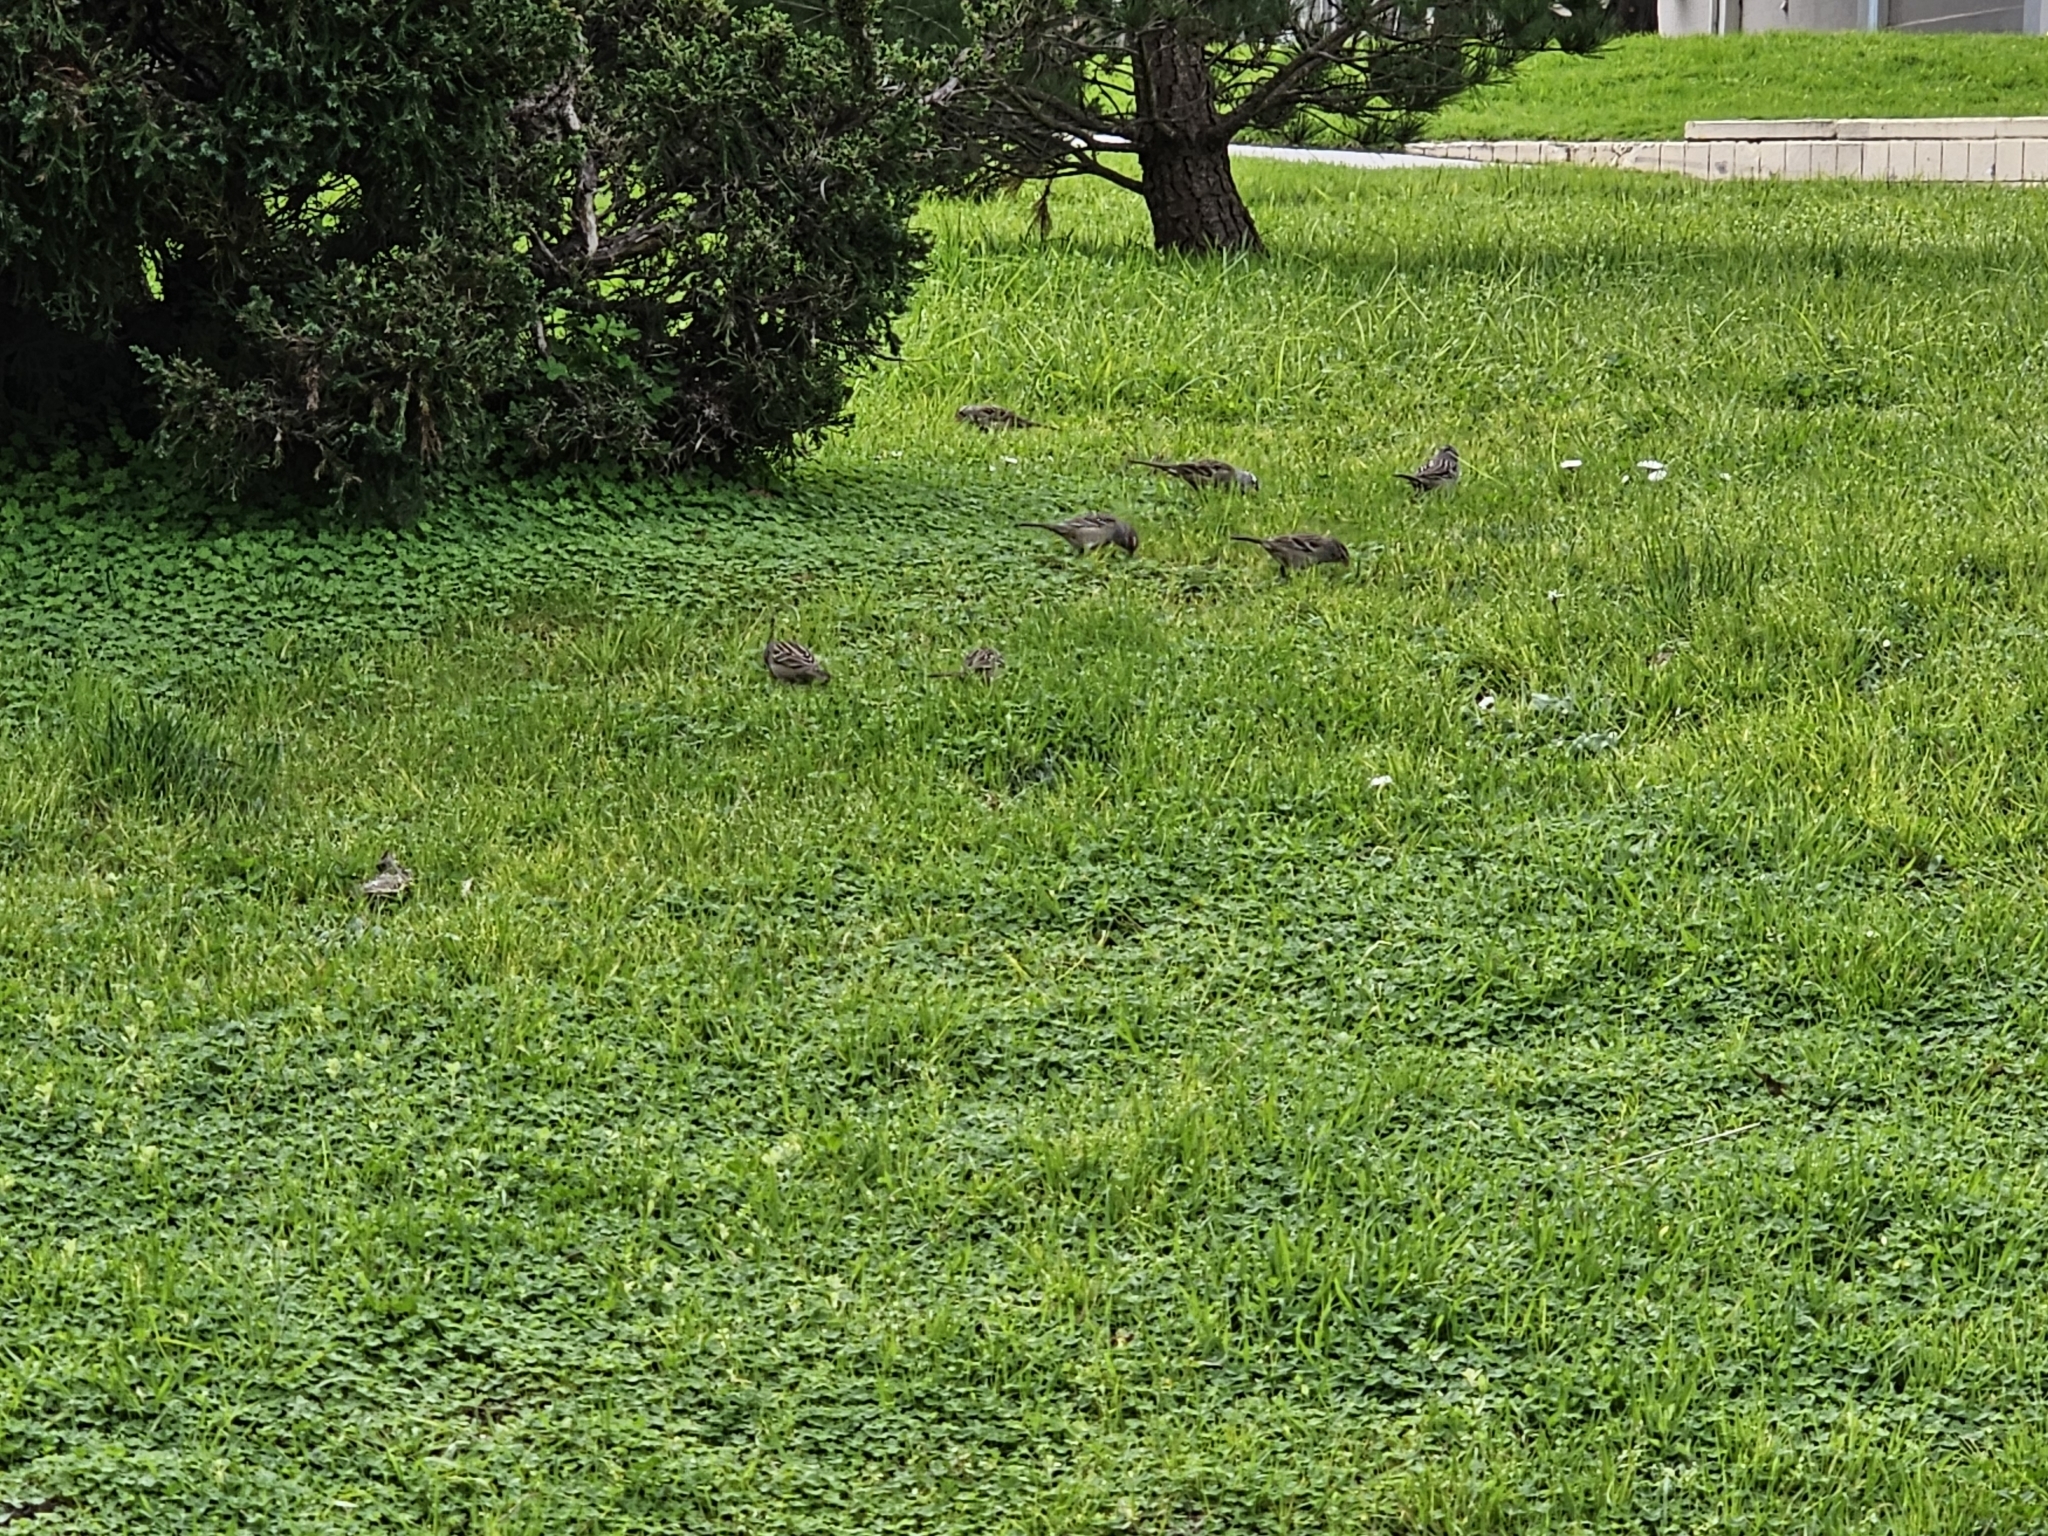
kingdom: Animalia
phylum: Chordata
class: Aves
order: Passeriformes
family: Passerellidae
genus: Zonotrichia
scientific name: Zonotrichia leucophrys
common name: White-crowned sparrow
